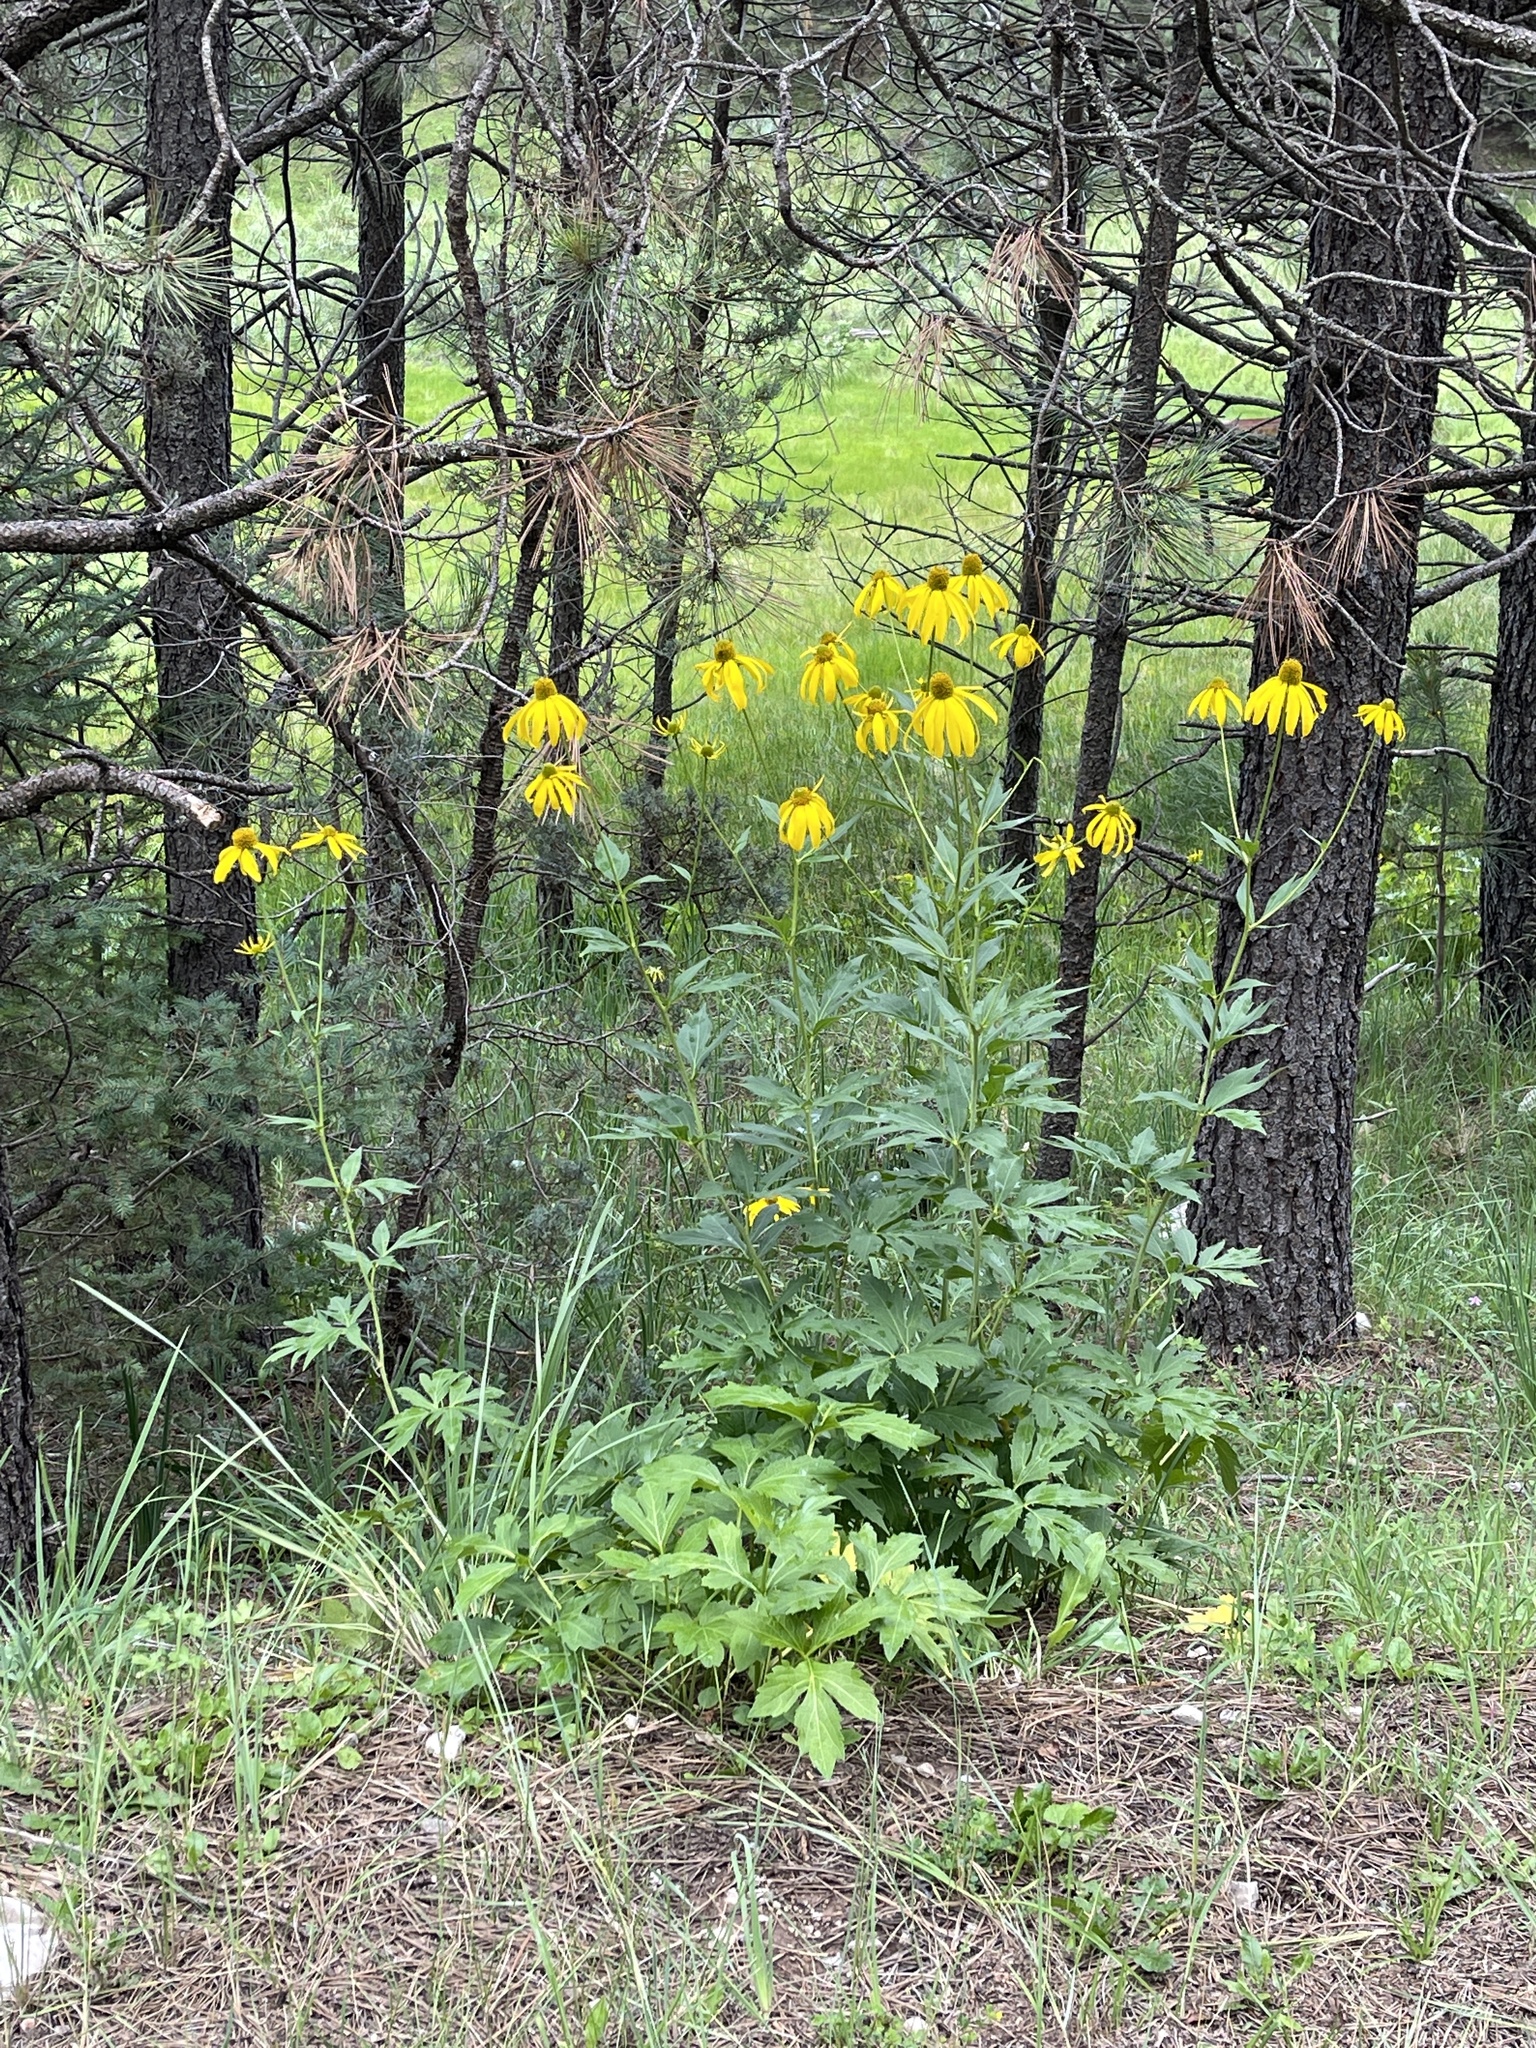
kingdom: Plantae
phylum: Tracheophyta
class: Magnoliopsida
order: Asterales
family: Asteraceae
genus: Rudbeckia
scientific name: Rudbeckia laciniata
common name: Coneflower
